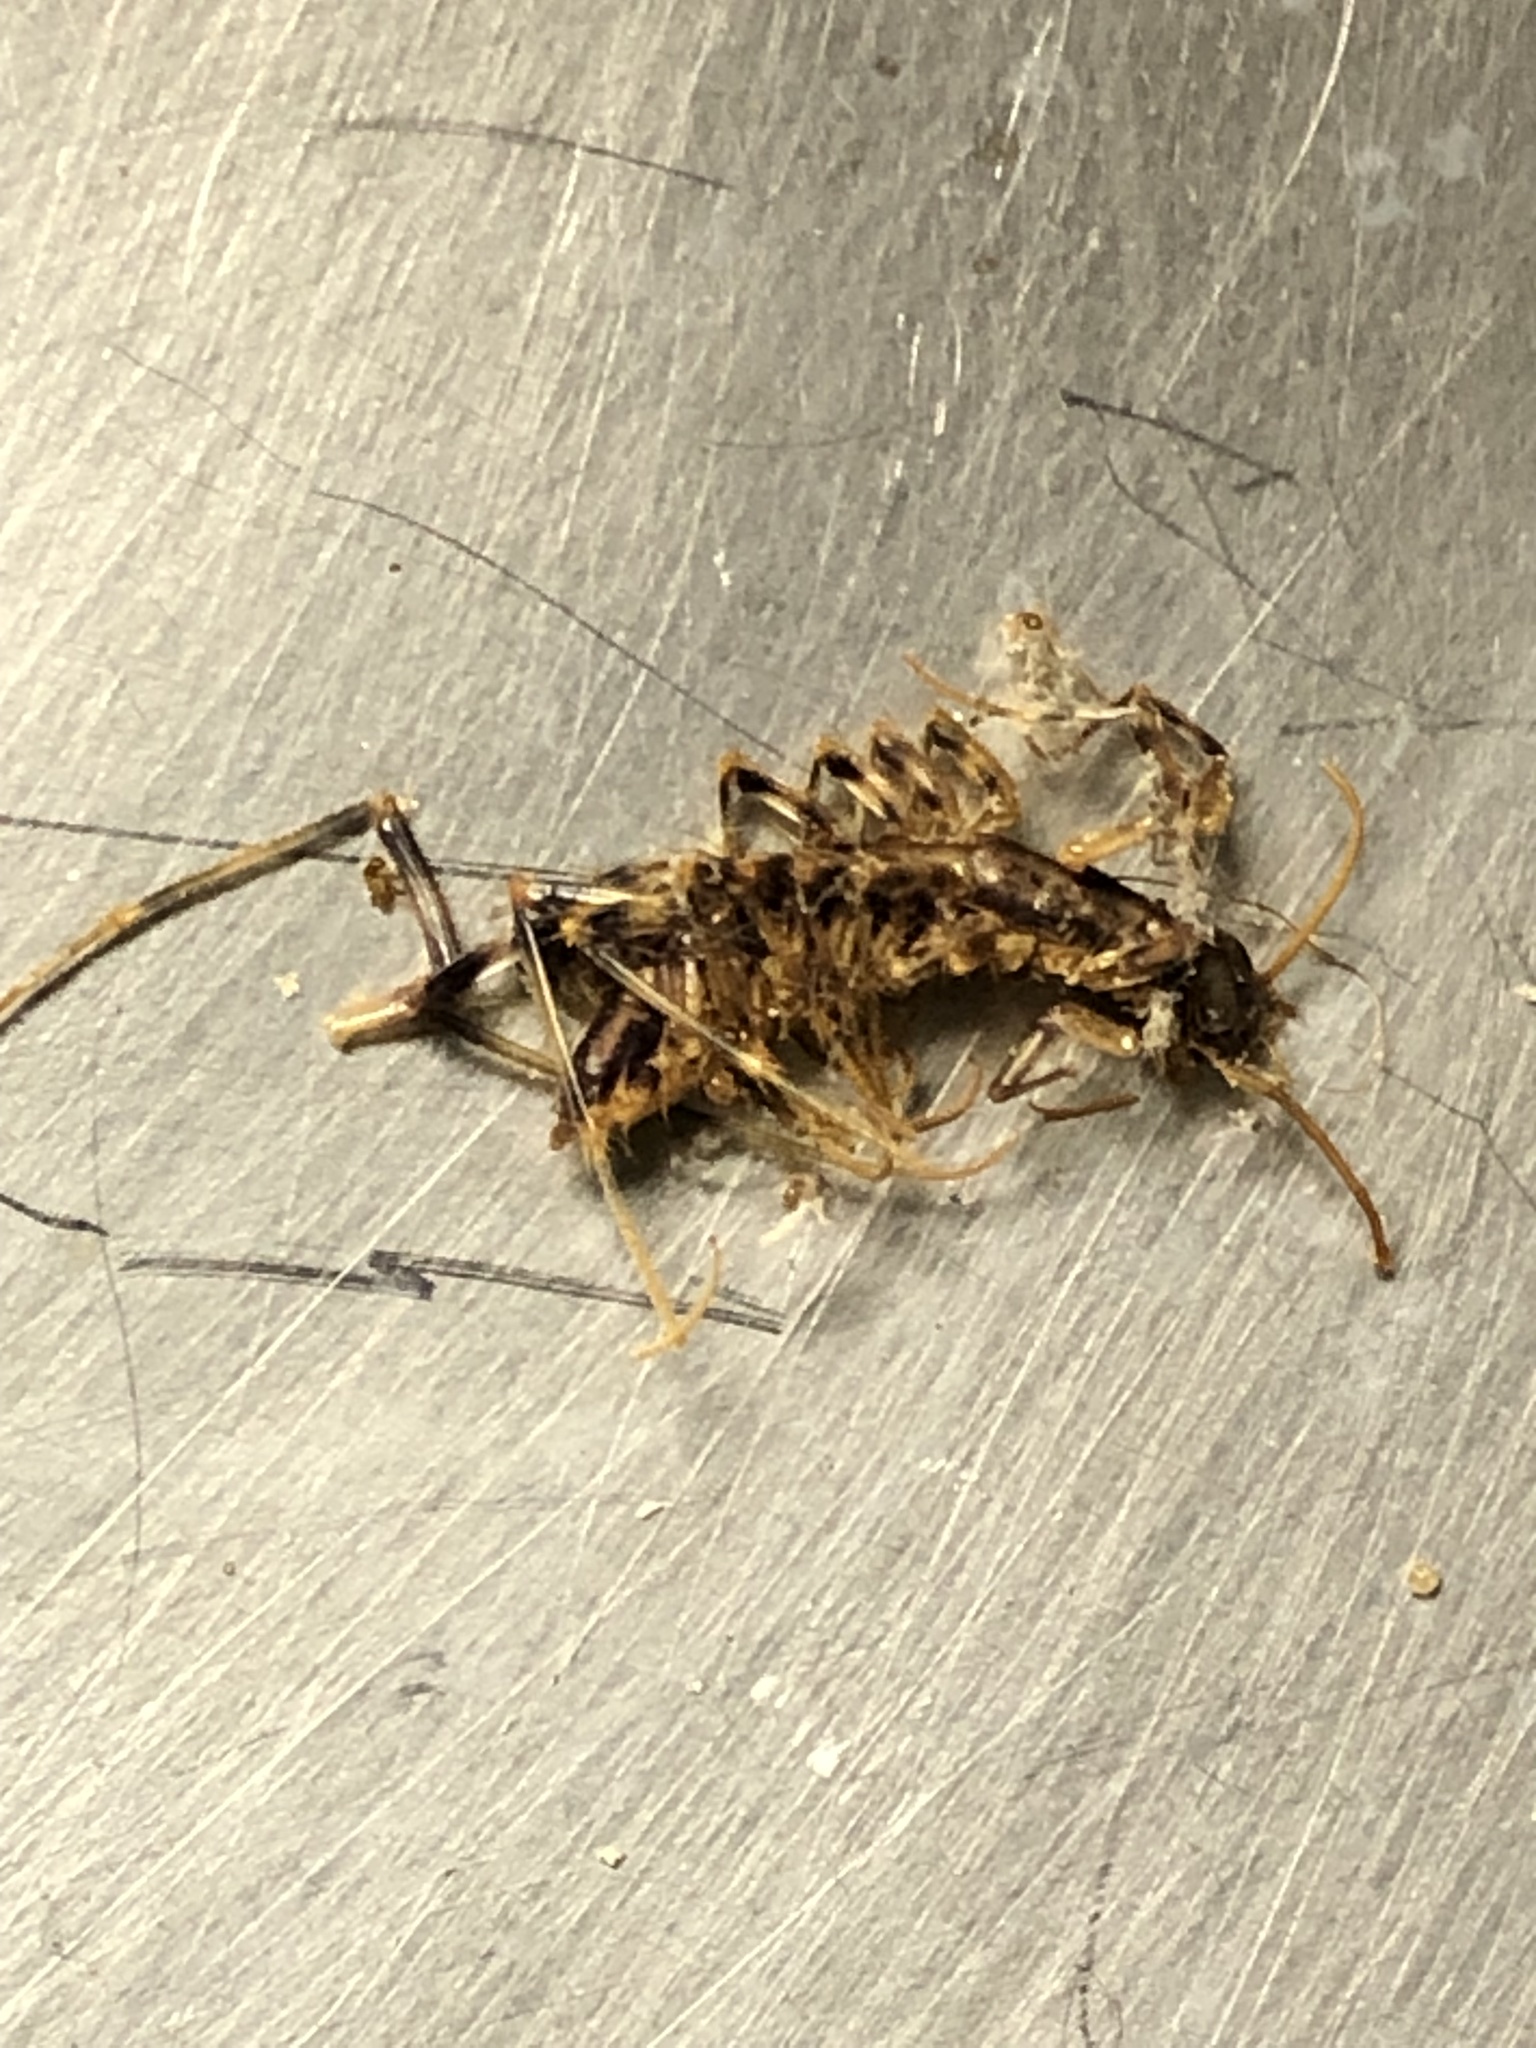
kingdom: Animalia
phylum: Arthropoda
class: Chilopoda
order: Scutigeromorpha
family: Scutigeridae
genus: Scutigera
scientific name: Scutigera coleoptrata
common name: House centipede
